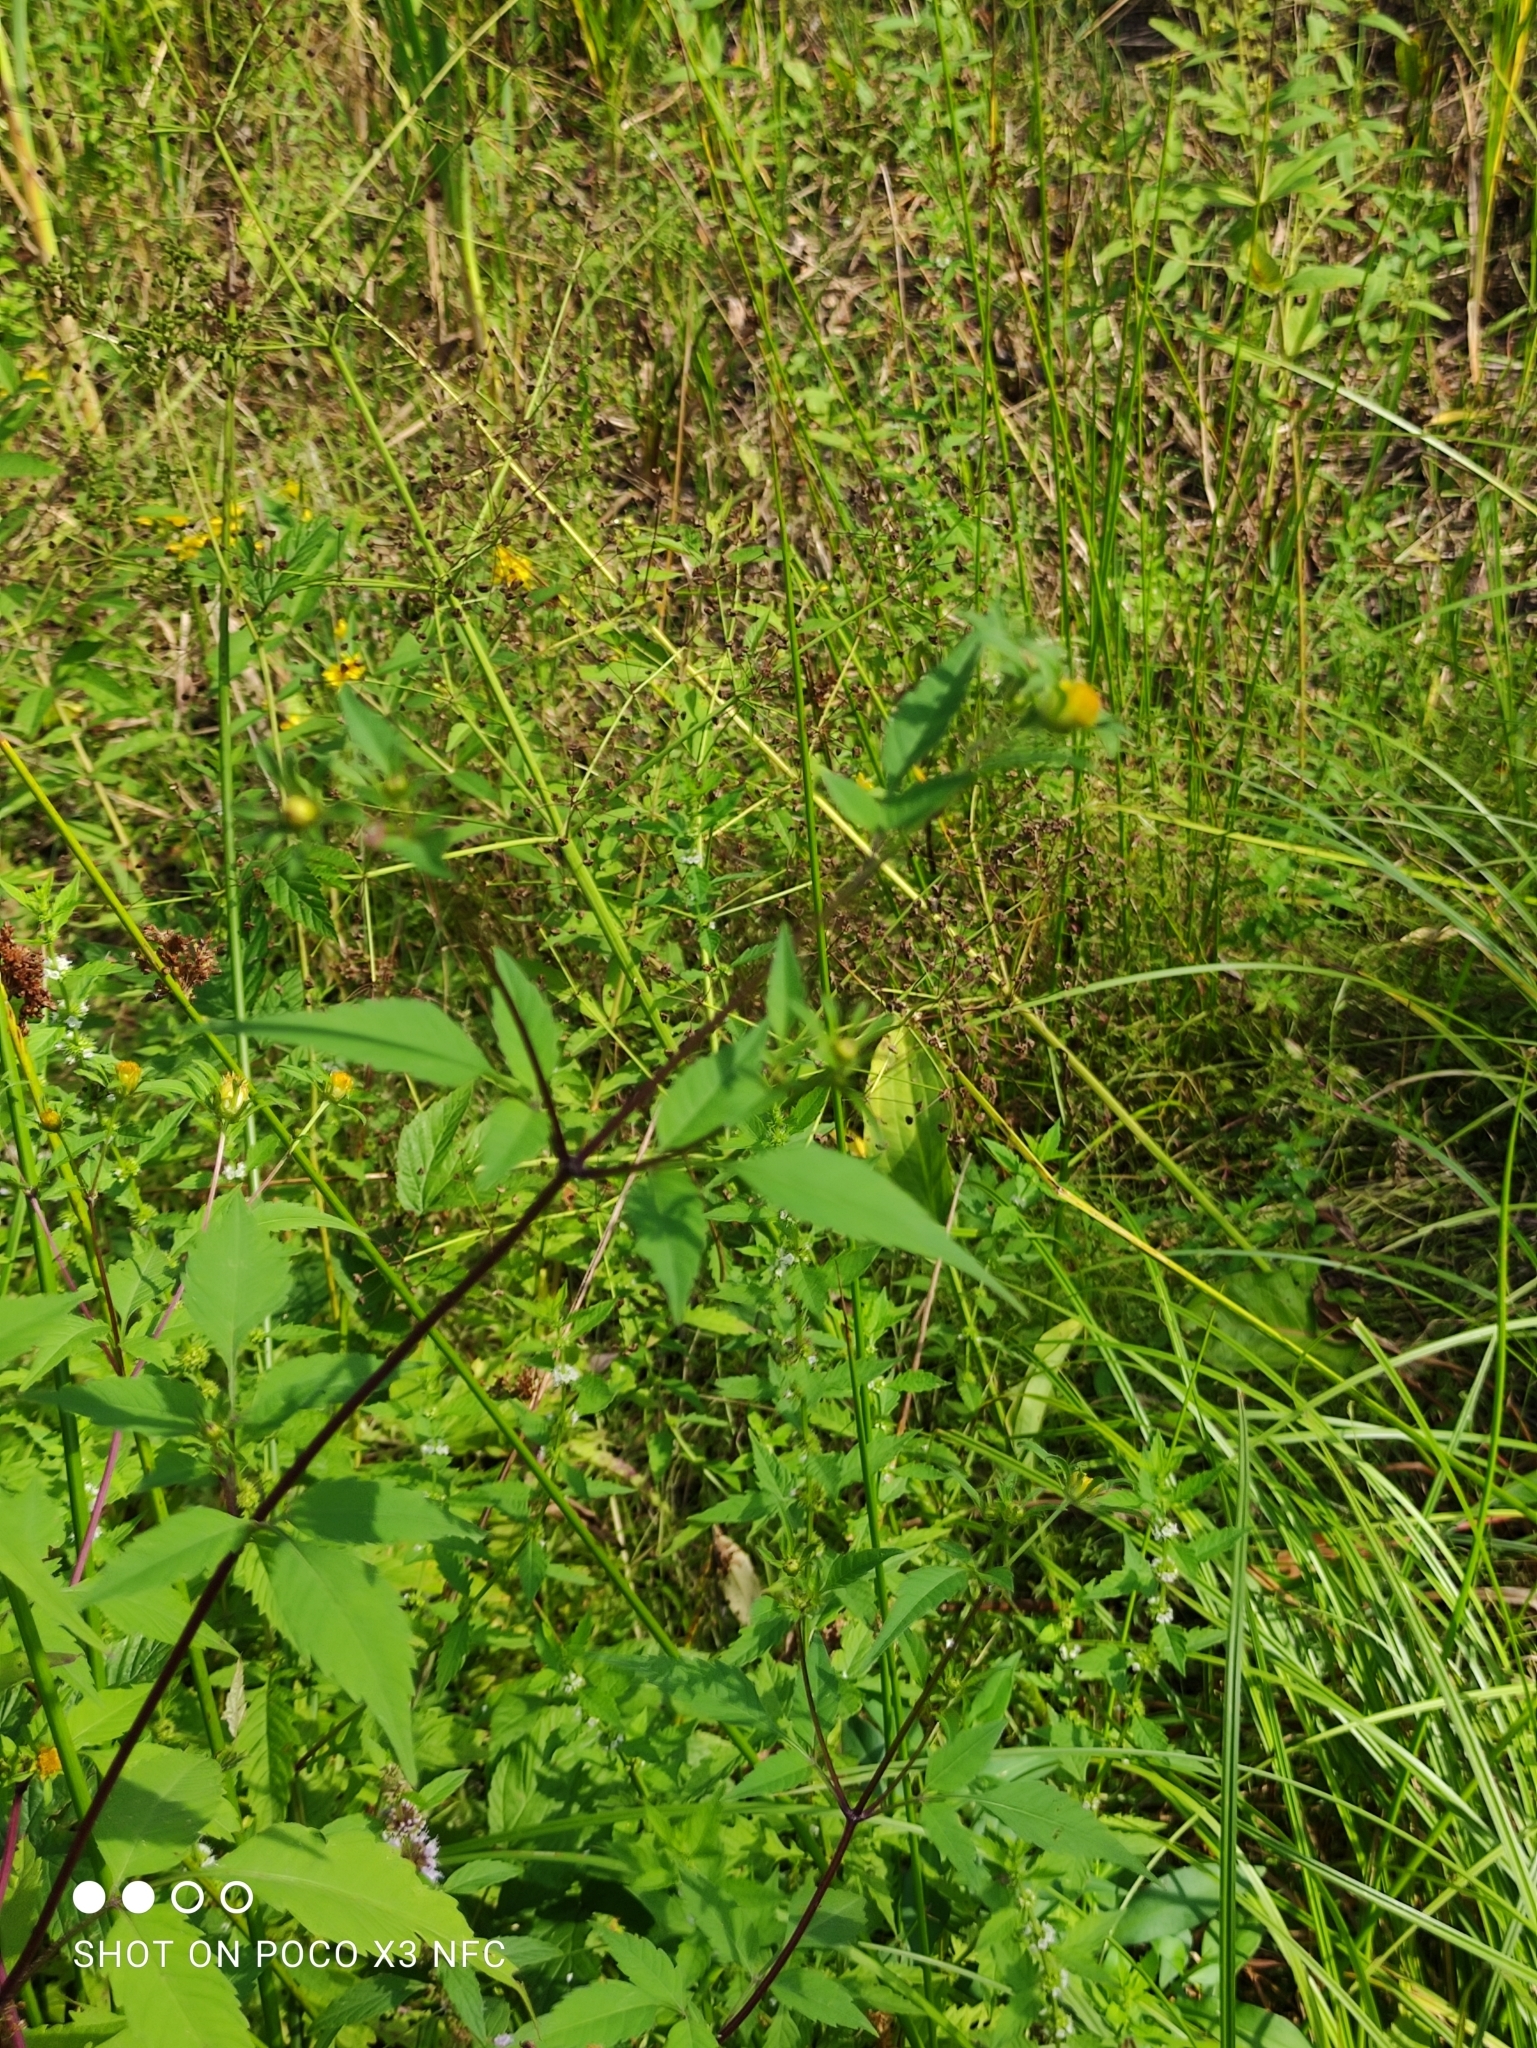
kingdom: Plantae
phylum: Tracheophyta
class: Magnoliopsida
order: Asterales
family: Asteraceae
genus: Bidens
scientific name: Bidens frondosa
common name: Beggarticks
